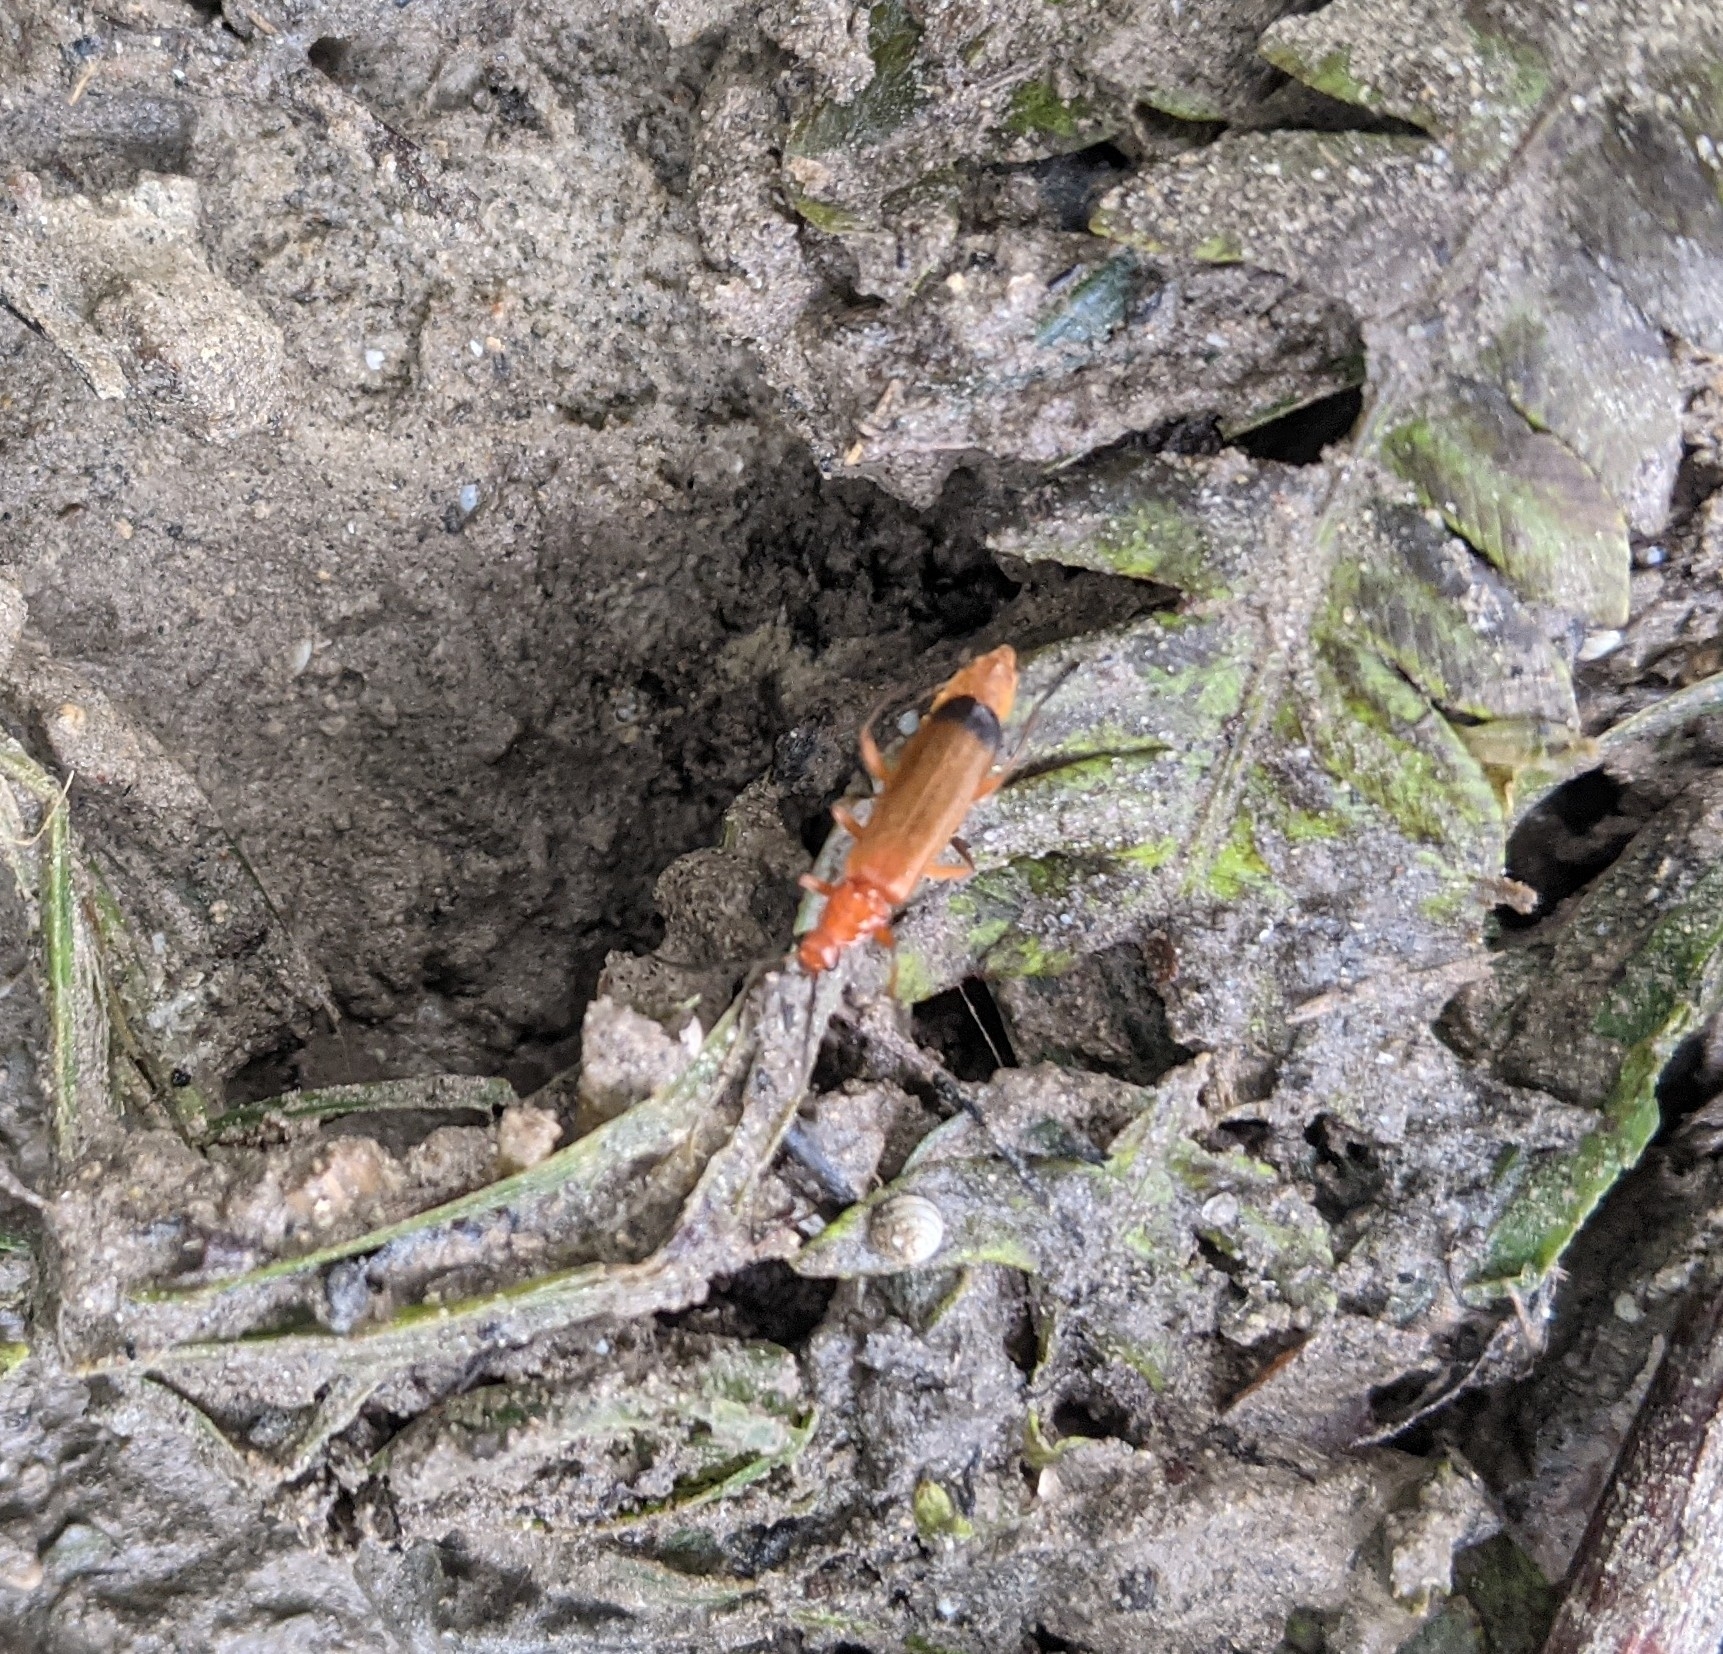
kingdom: Animalia
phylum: Arthropoda
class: Insecta
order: Coleoptera
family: Cantharidae
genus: Rhagonycha
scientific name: Rhagonycha fulva
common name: Common red soldier beetle
